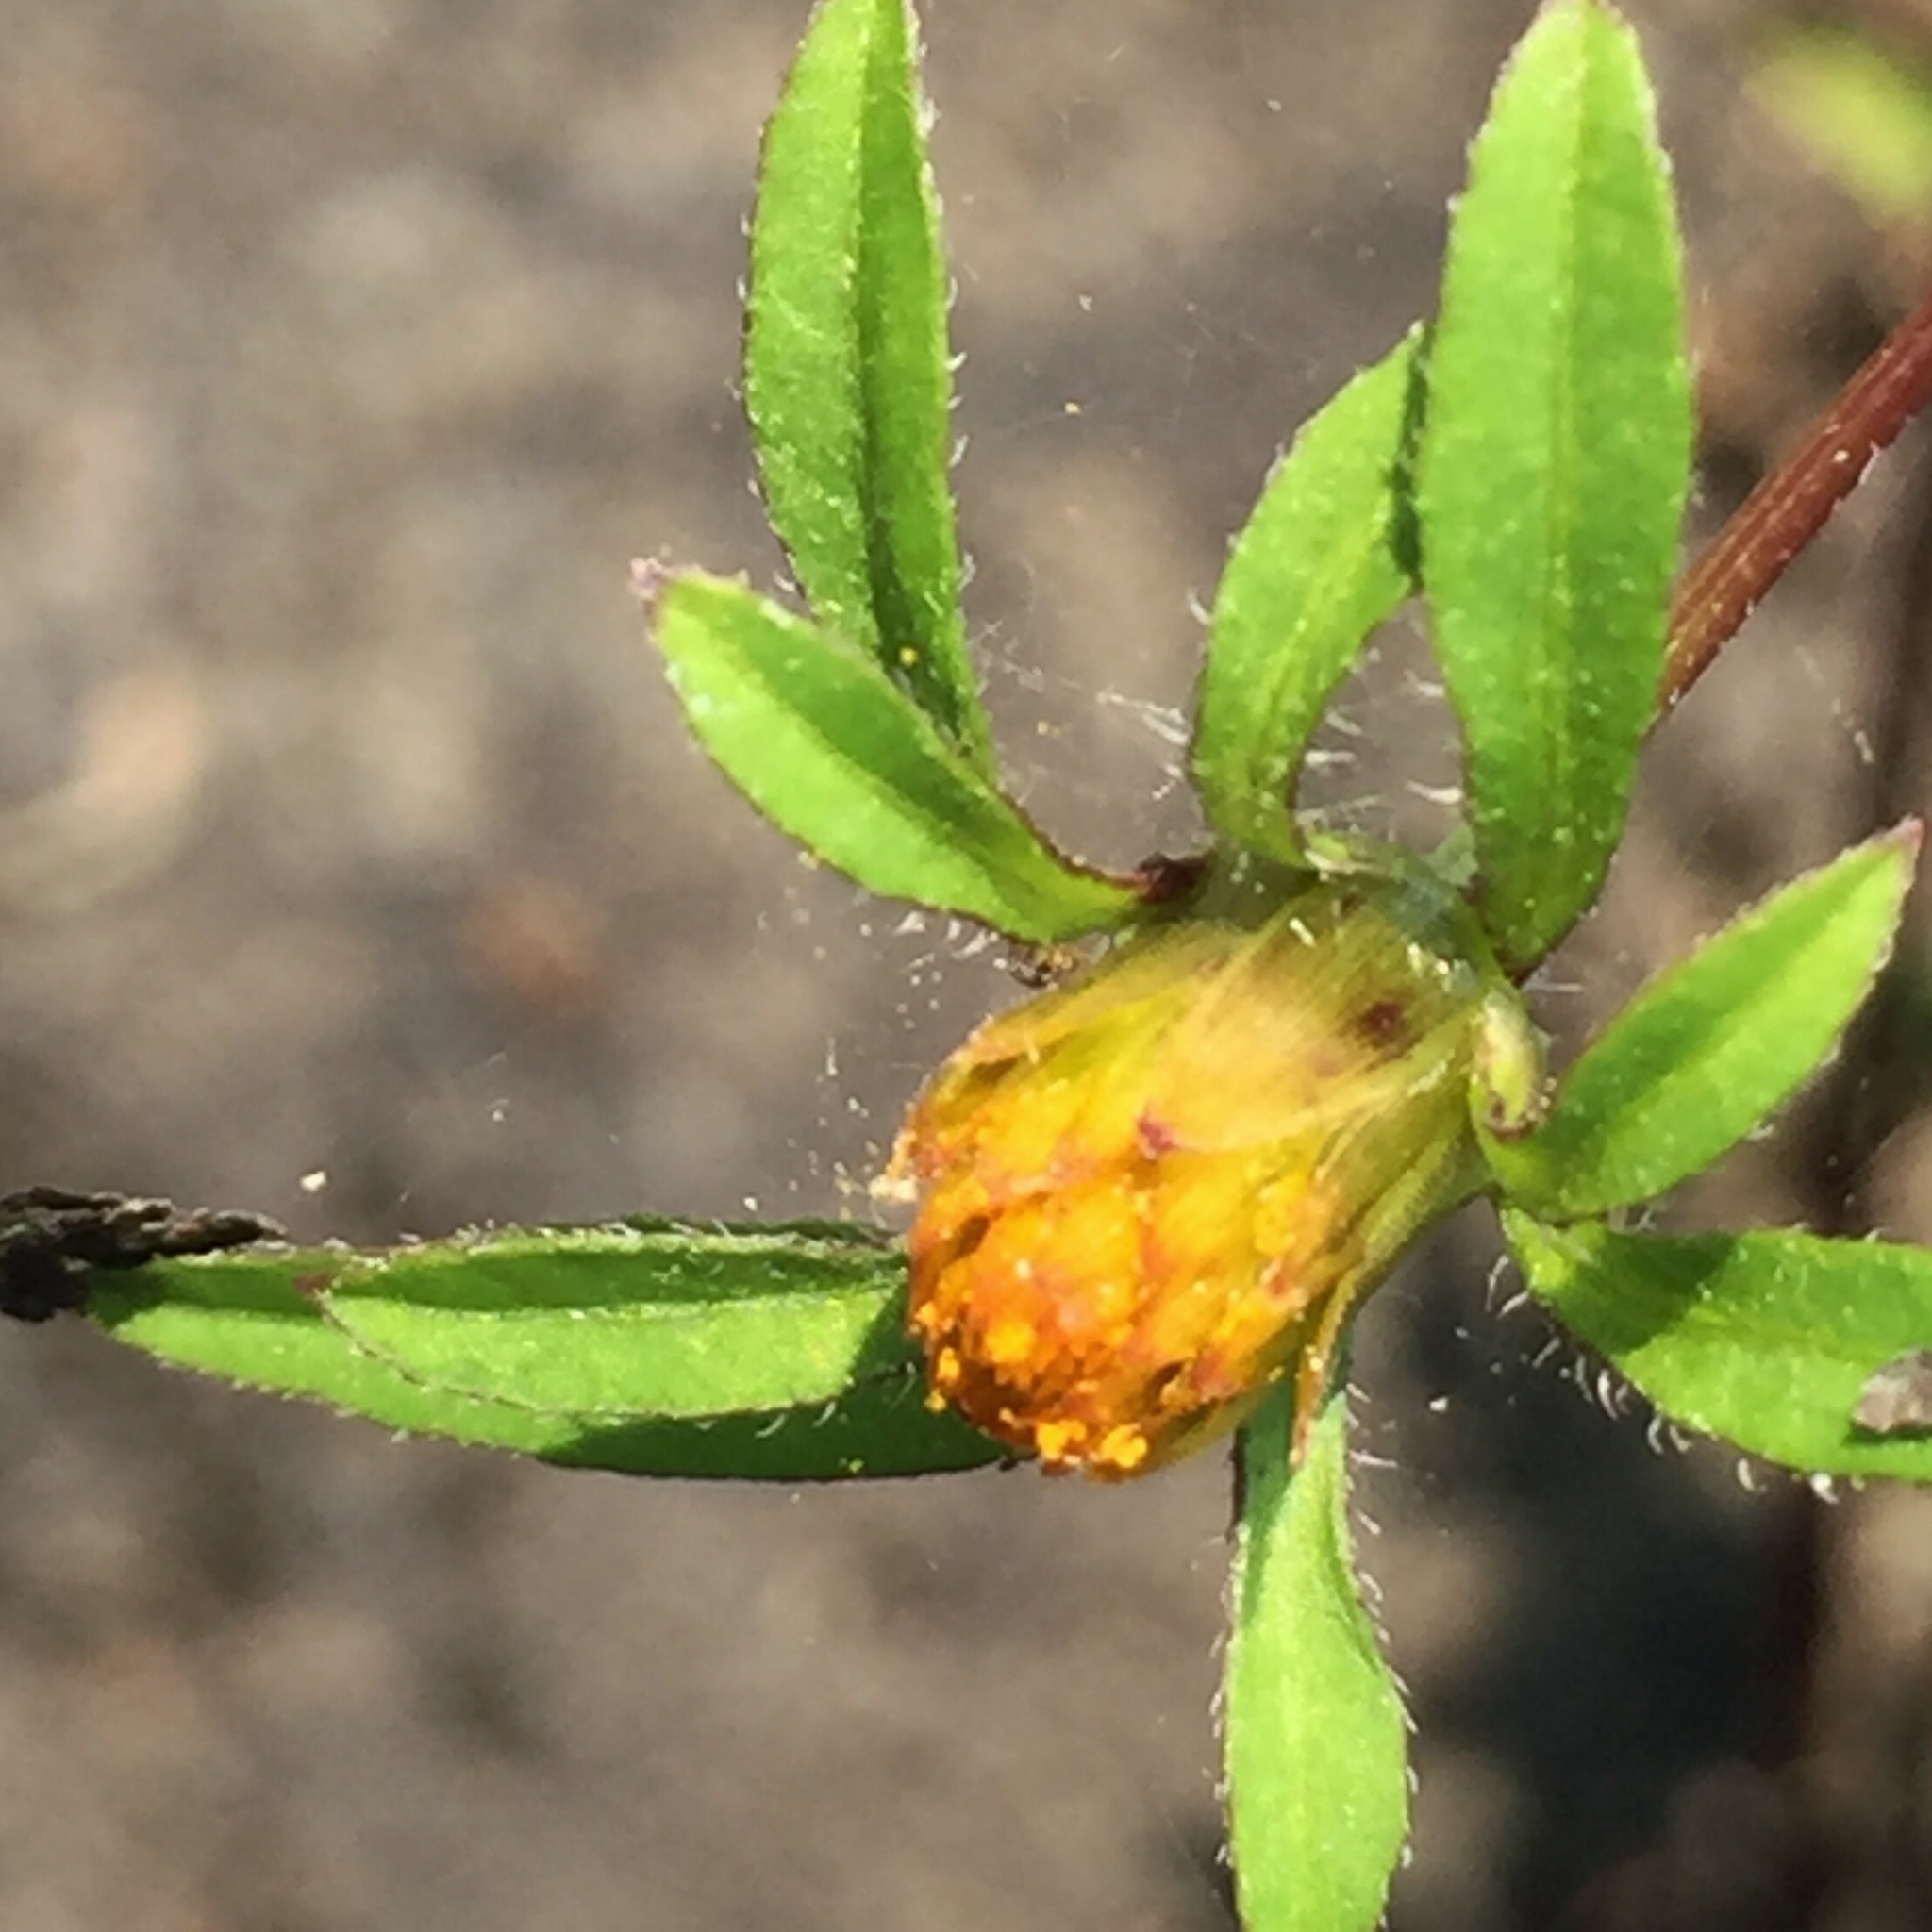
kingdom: Plantae
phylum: Tracheophyta
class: Magnoliopsida
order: Asterales
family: Asteraceae
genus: Bidens
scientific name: Bidens frondosa
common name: Beggarticks
